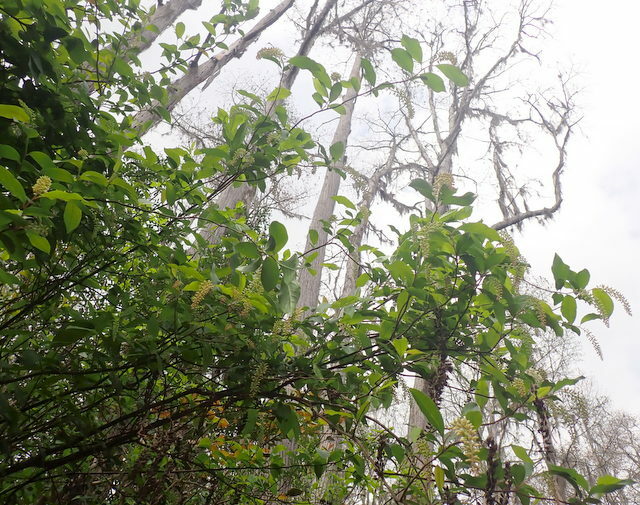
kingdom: Plantae
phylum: Tracheophyta
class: Magnoliopsida
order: Saxifragales
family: Iteaceae
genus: Itea
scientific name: Itea virginica
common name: Sweetspire
